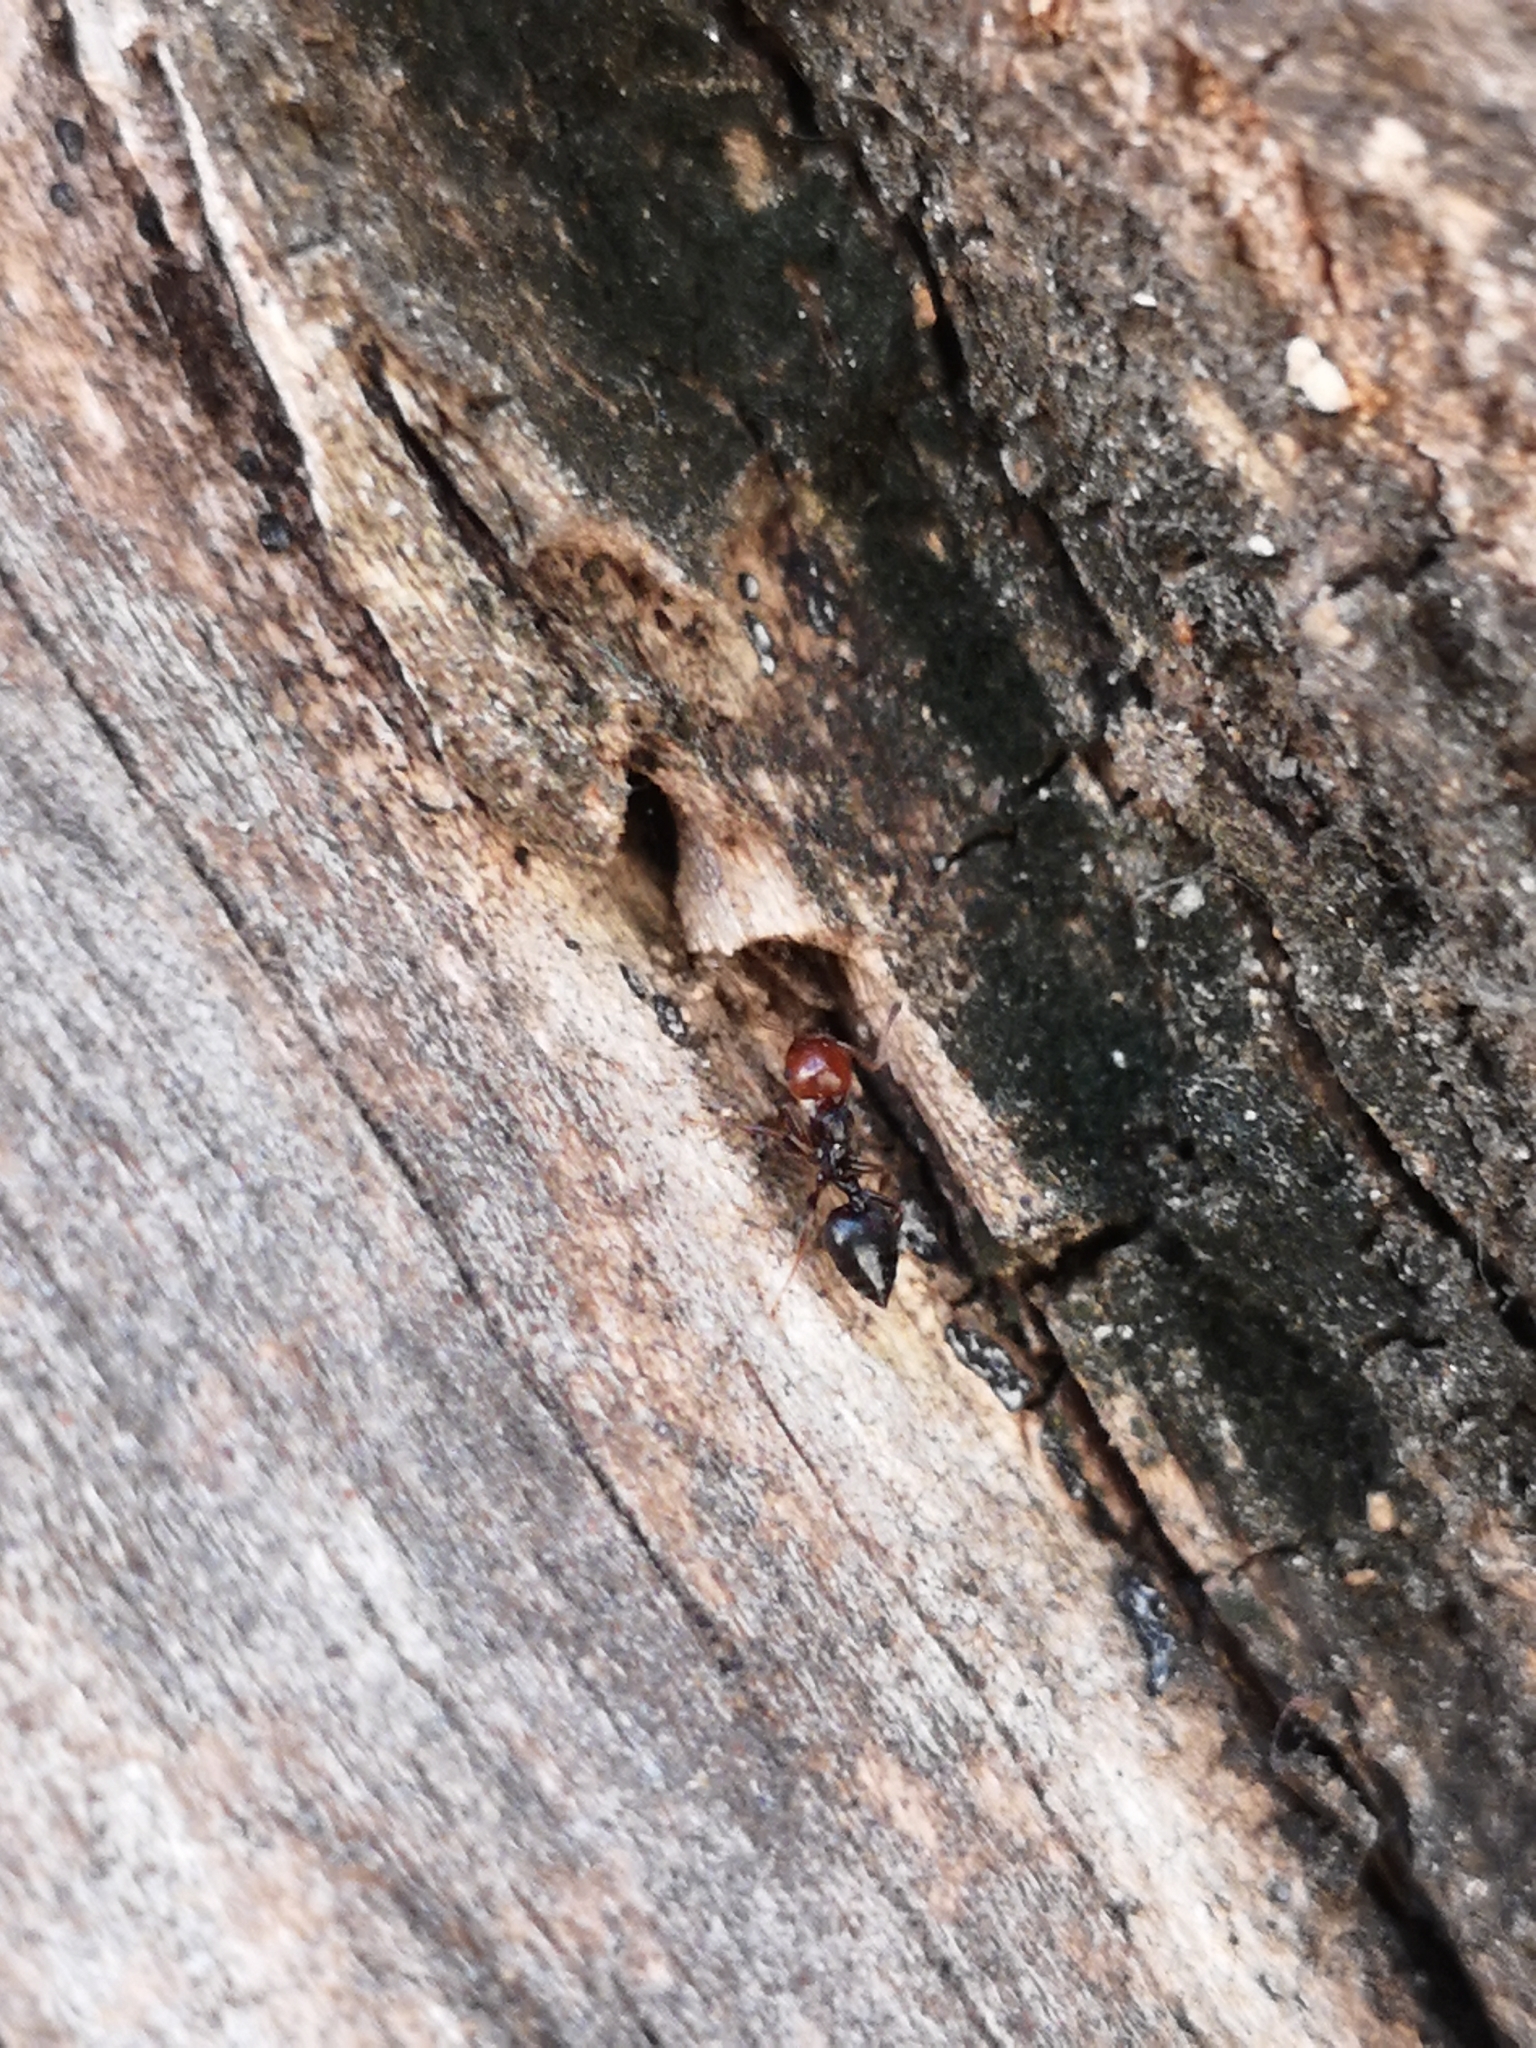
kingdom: Animalia
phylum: Arthropoda
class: Insecta
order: Hymenoptera
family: Formicidae
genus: Crematogaster
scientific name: Crematogaster scutellaris
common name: Fourmi du liège
